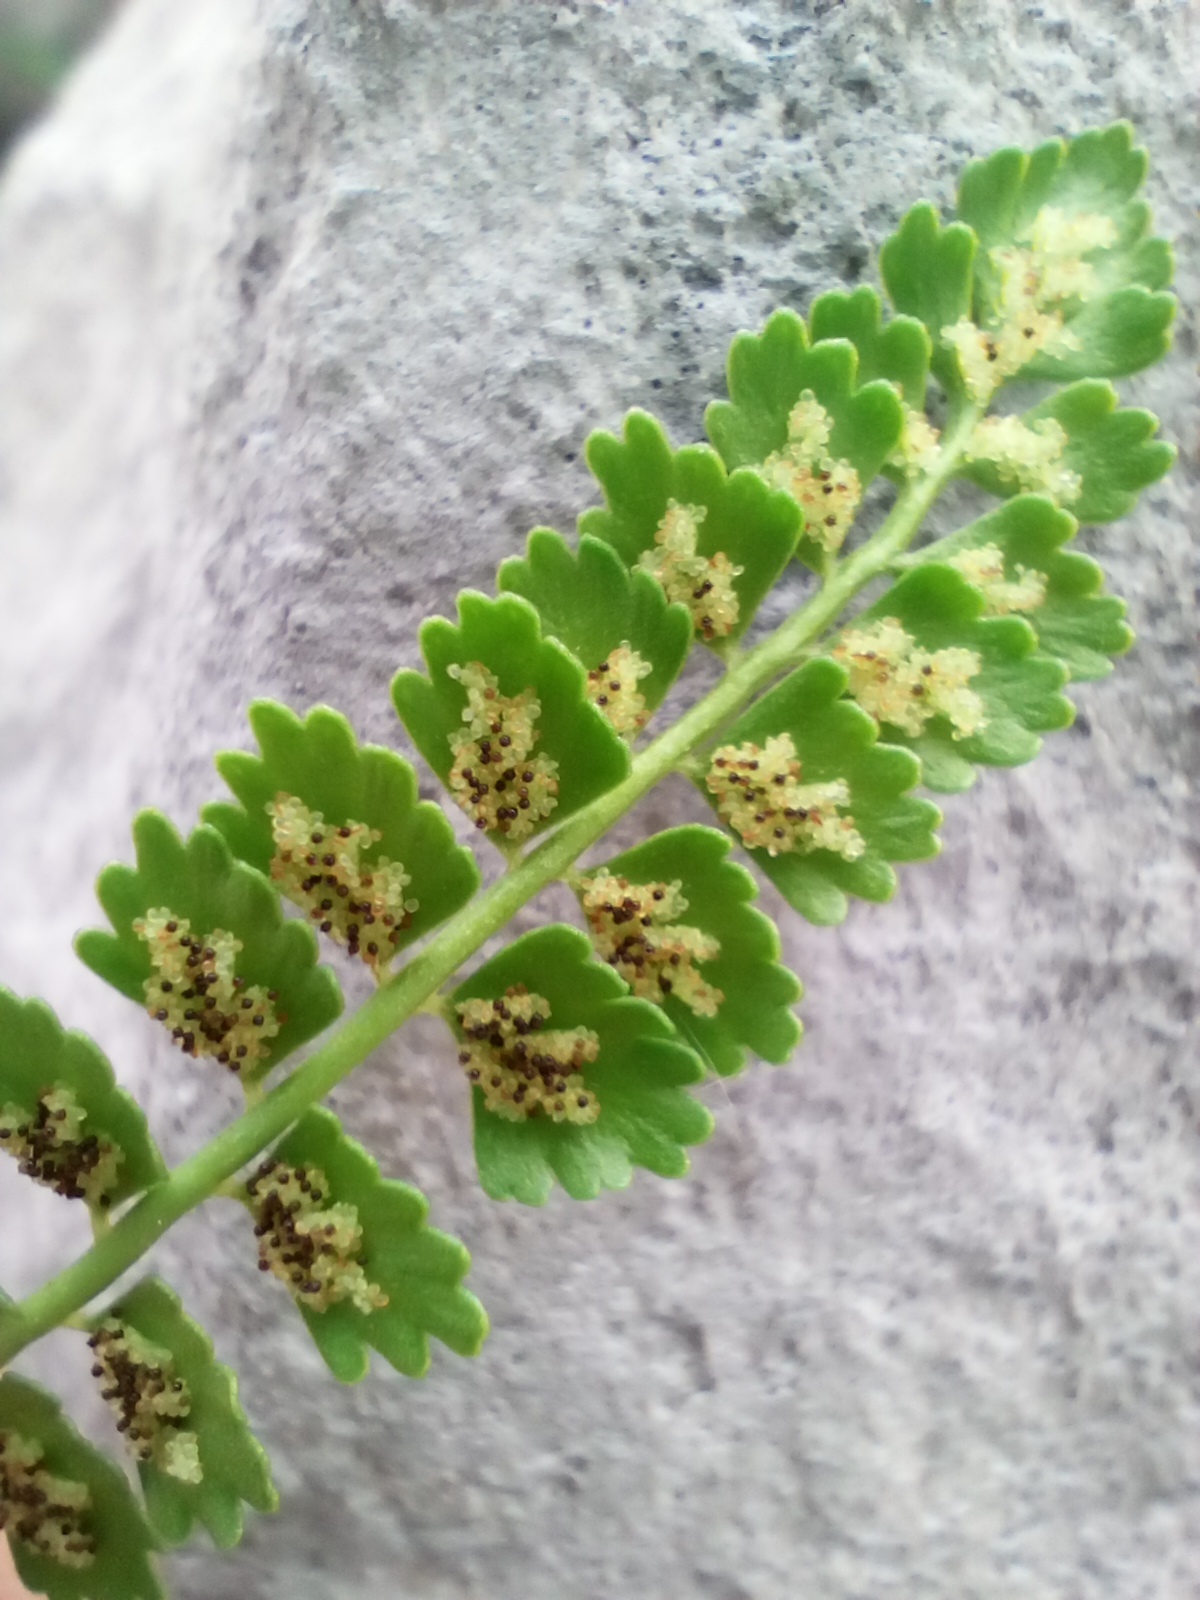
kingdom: Plantae
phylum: Tracheophyta
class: Polypodiopsida
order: Polypodiales
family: Aspleniaceae
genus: Asplenium
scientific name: Asplenium viride
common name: Green spleenwort
